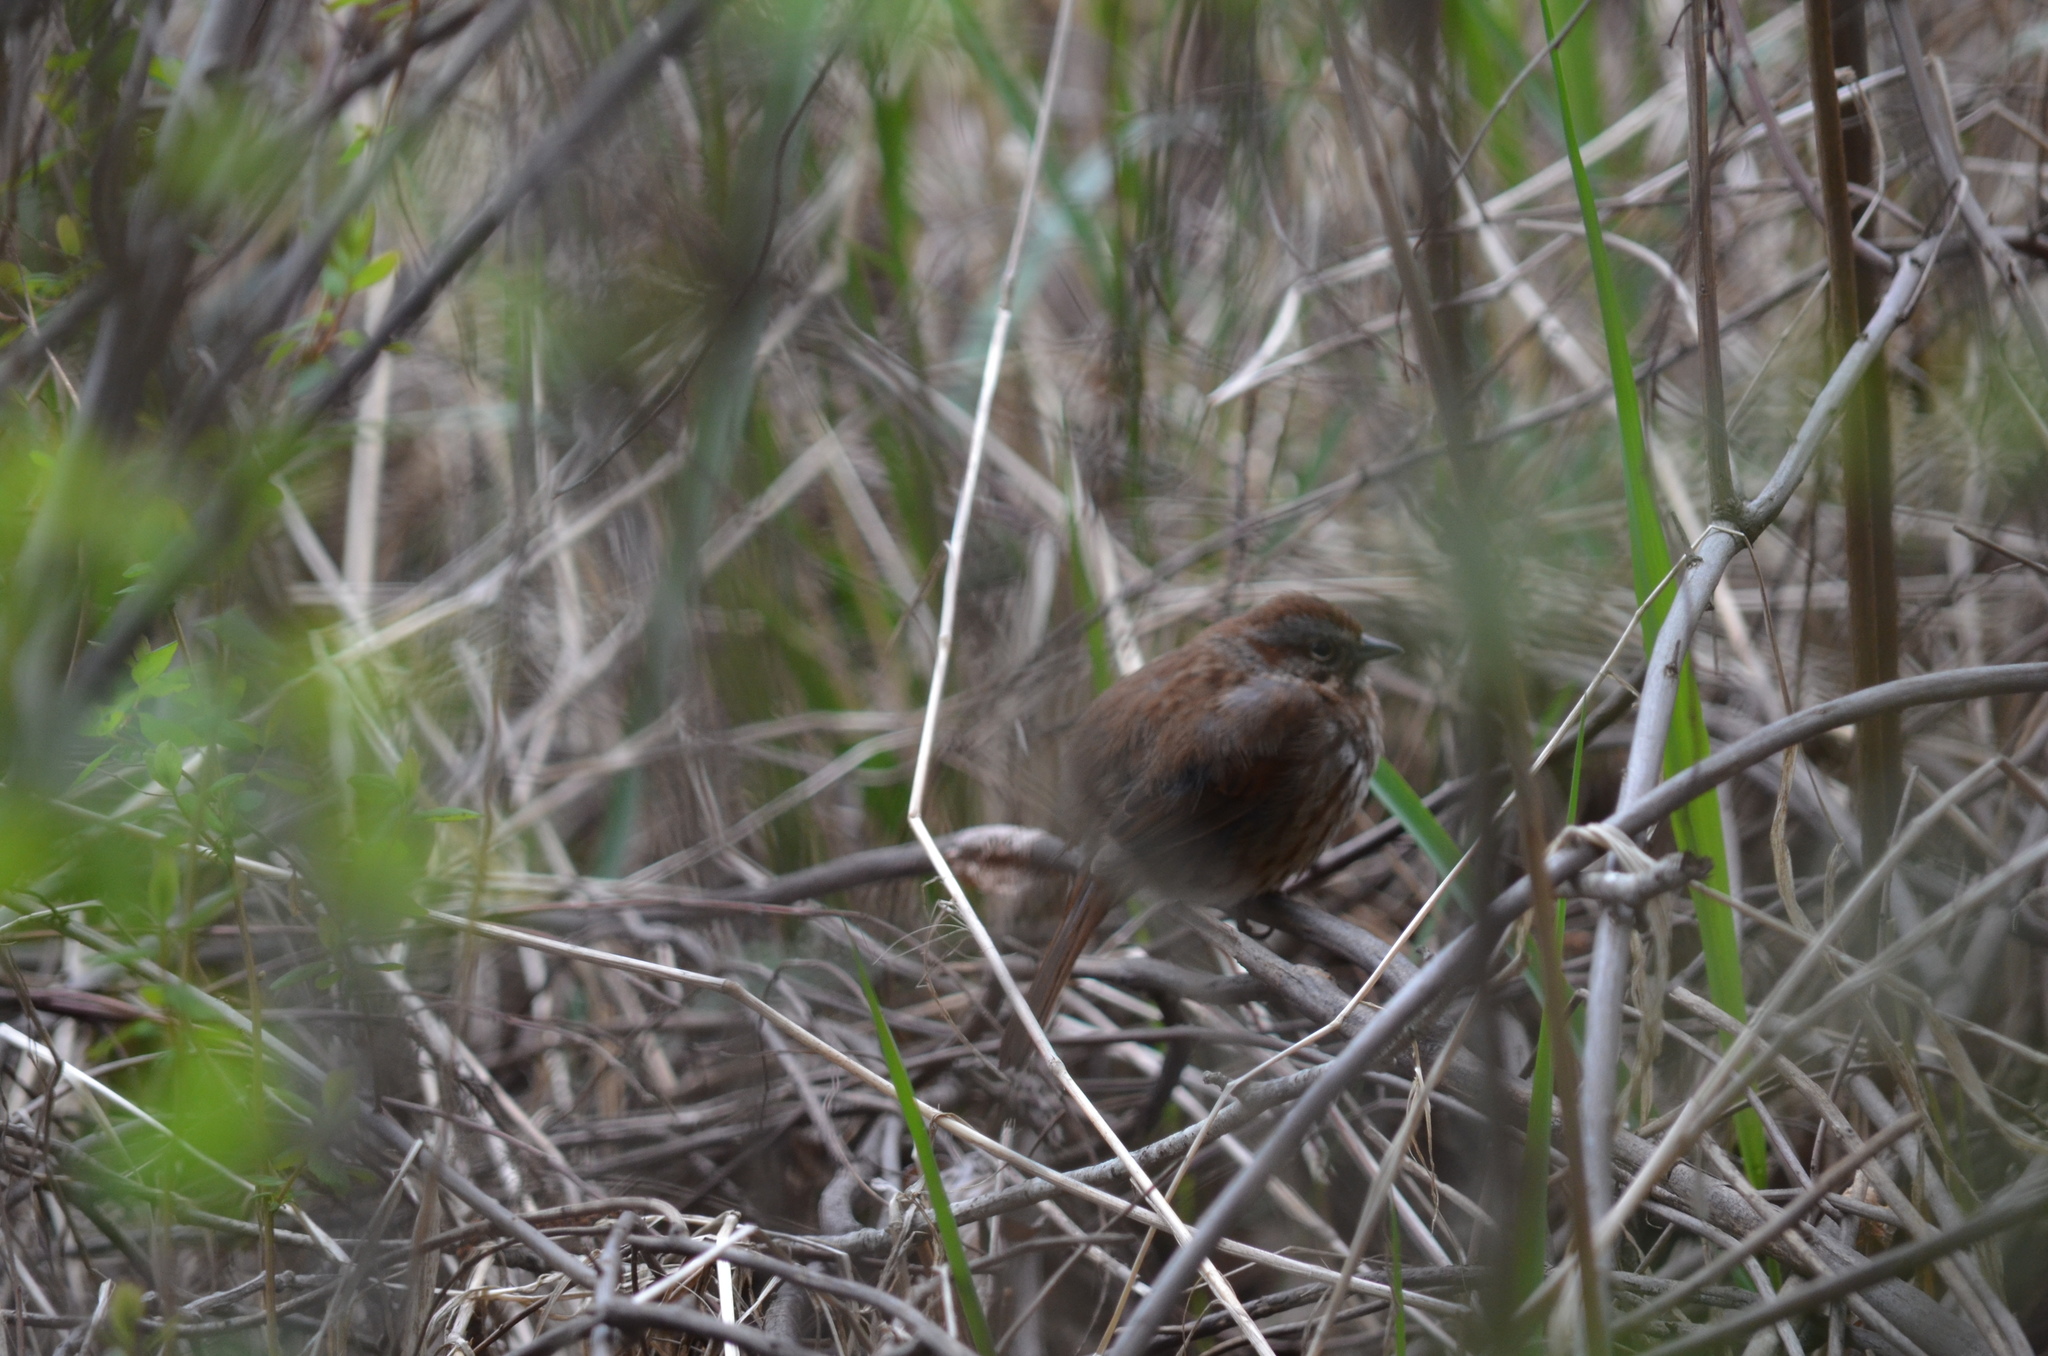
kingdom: Animalia
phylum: Chordata
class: Aves
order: Passeriformes
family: Passerellidae
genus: Melospiza
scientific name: Melospiza melodia
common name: Song sparrow
